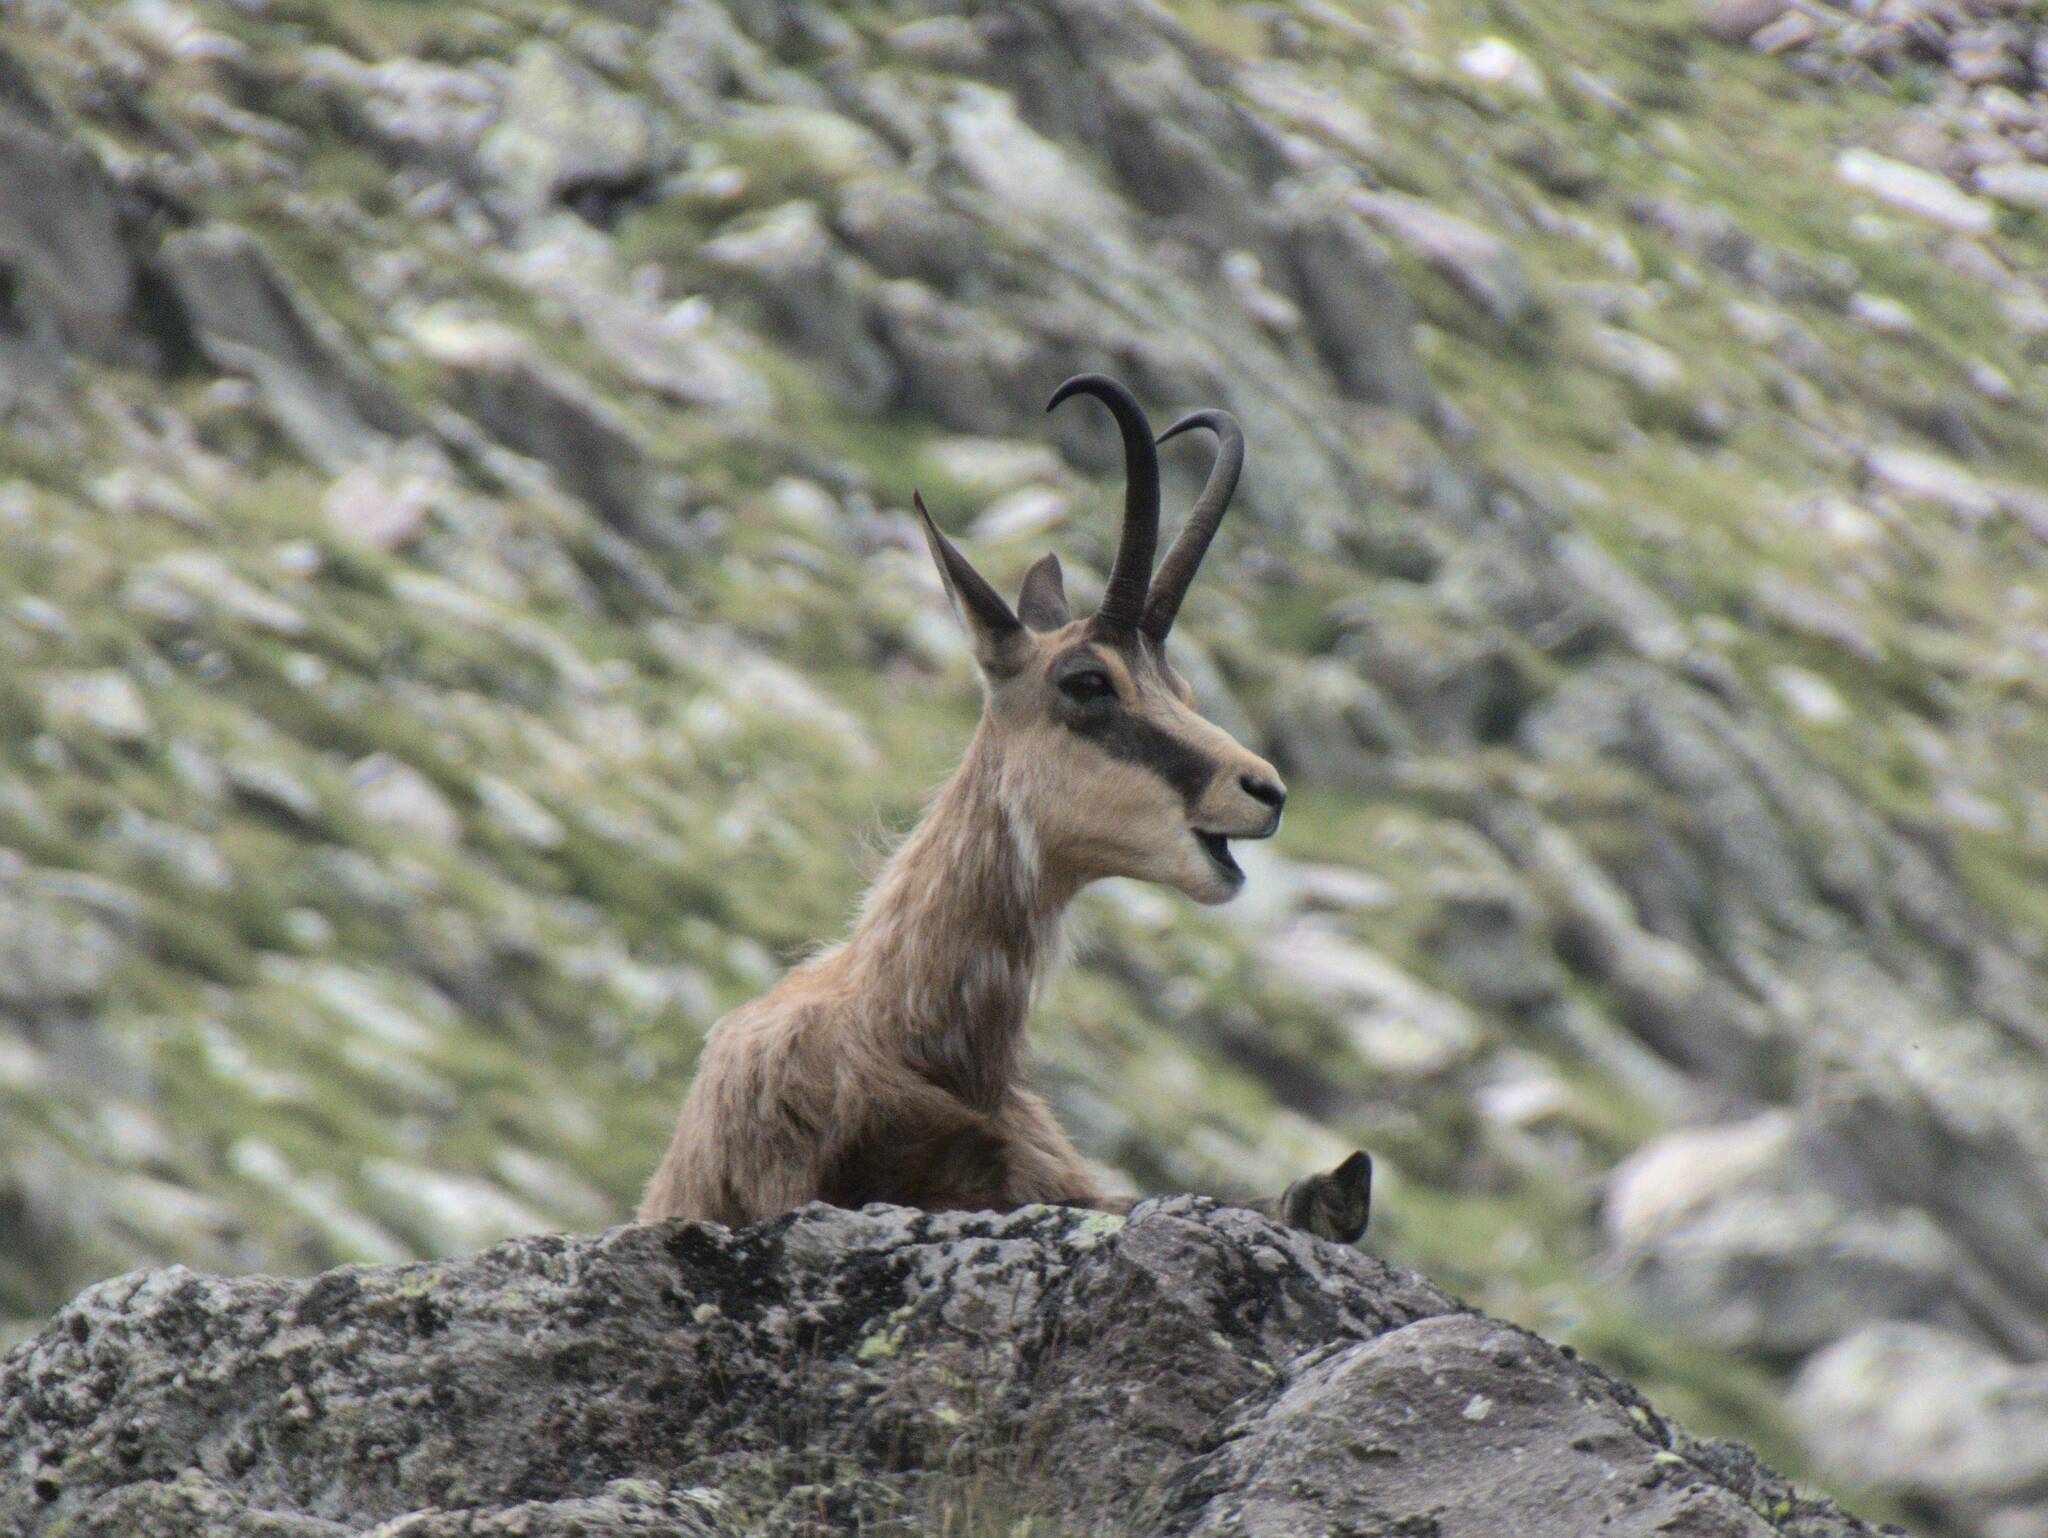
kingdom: Animalia
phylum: Chordata
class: Mammalia
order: Artiodactyla
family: Bovidae
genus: Rupicapra
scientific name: Rupicapra rupicapra
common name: Chamois
